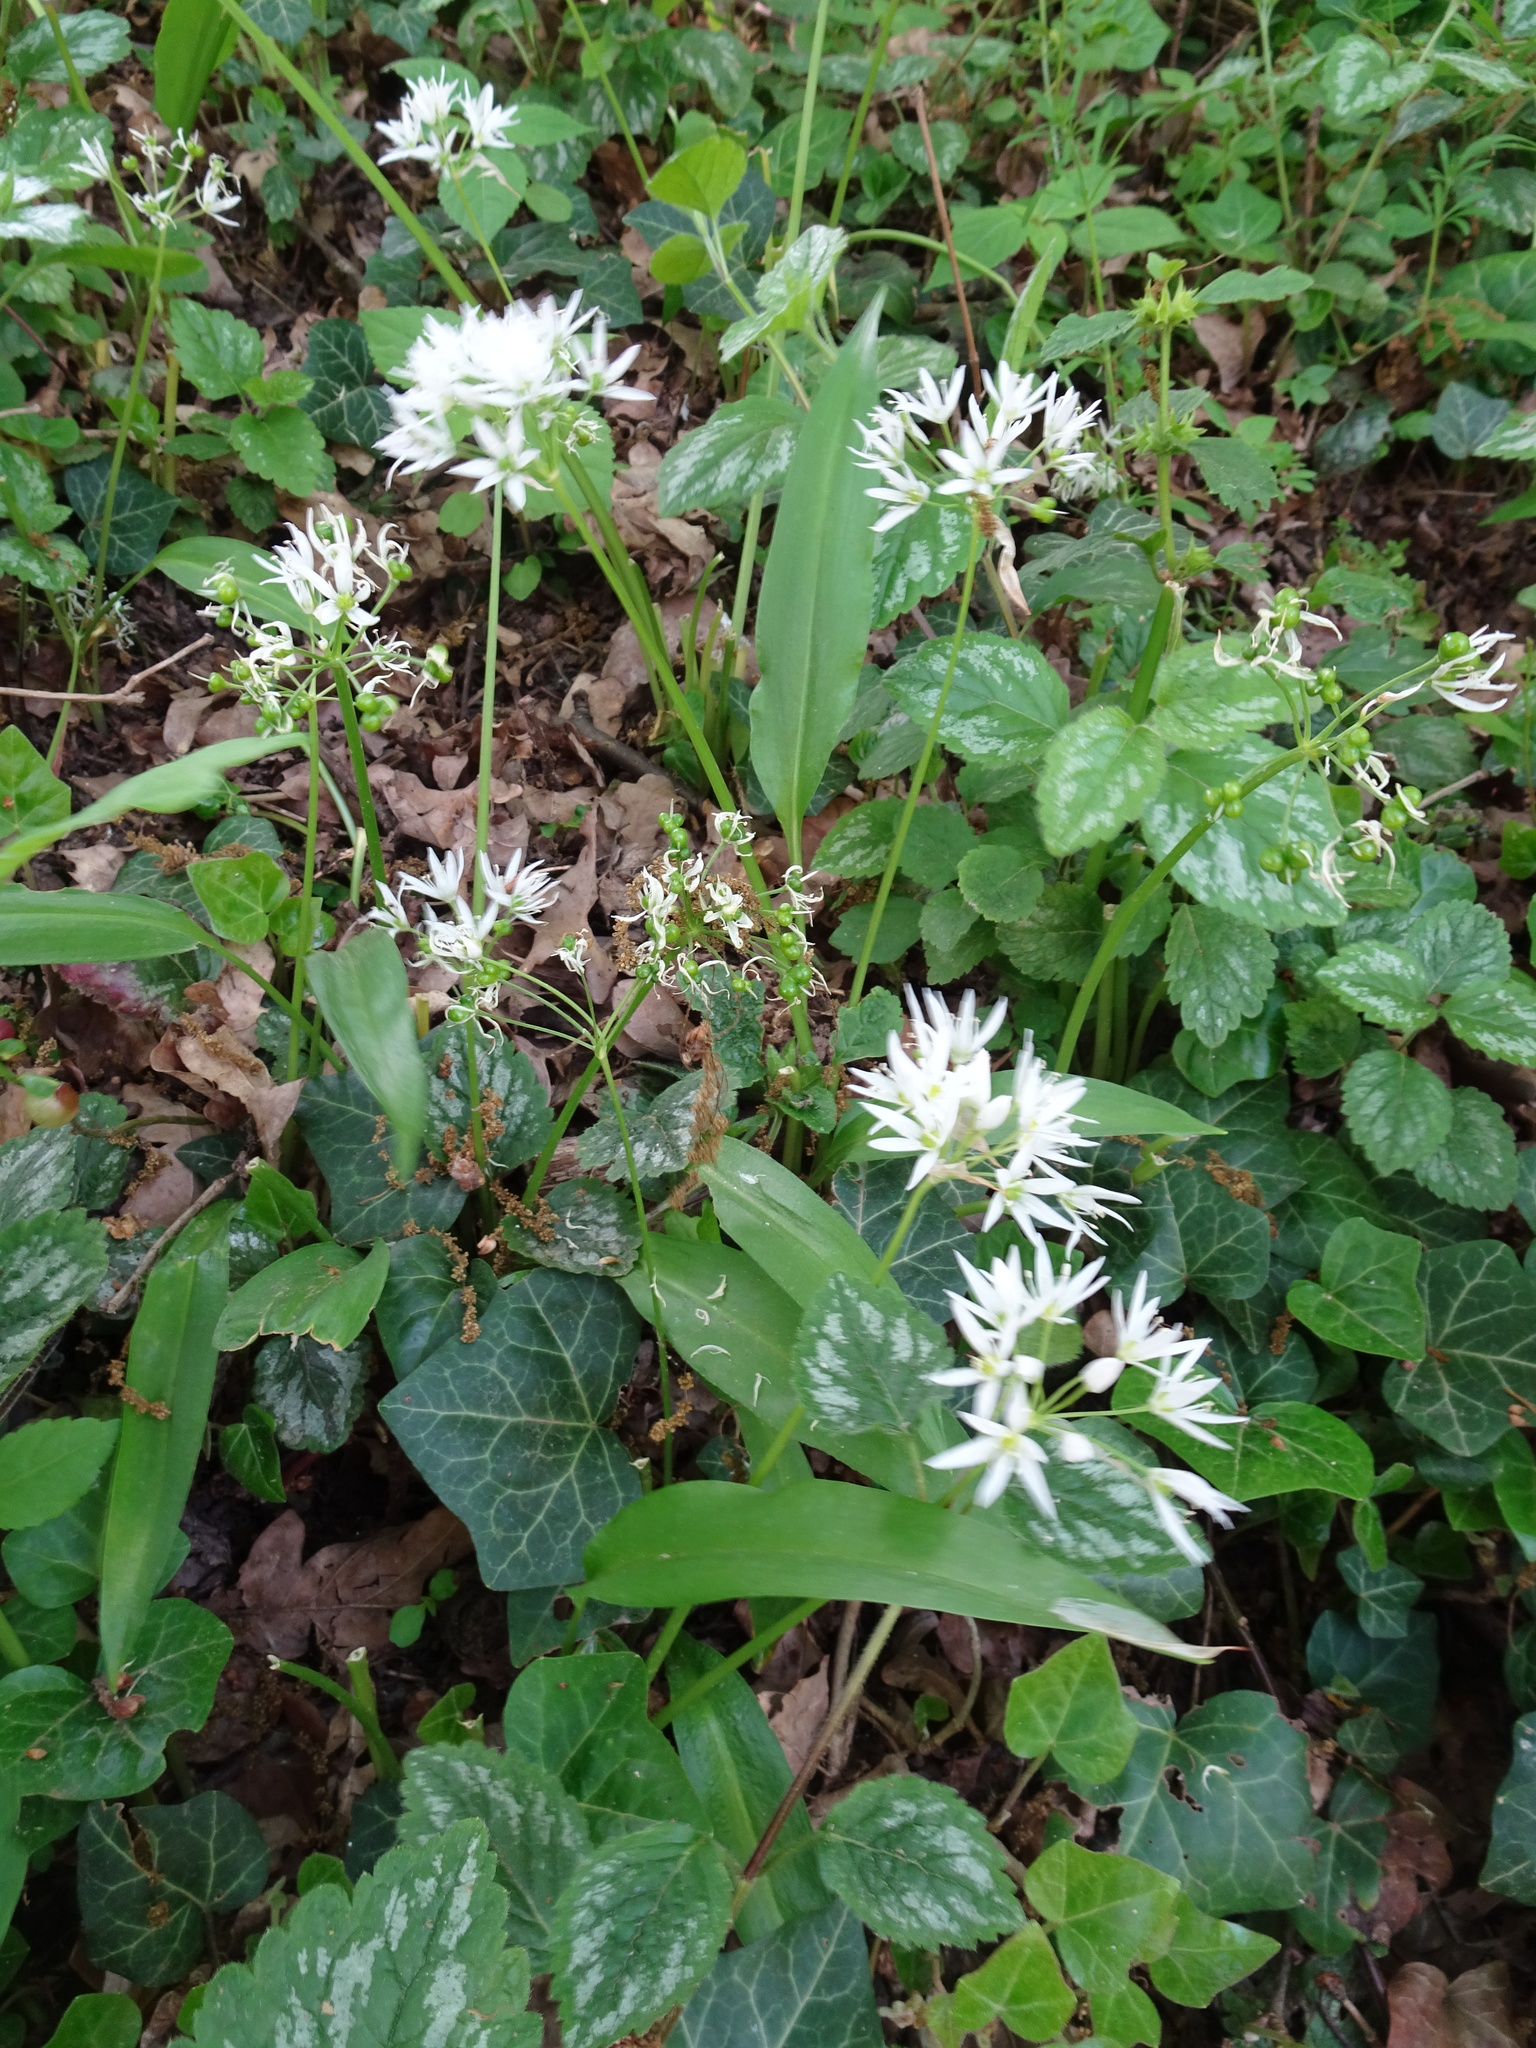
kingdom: Plantae
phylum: Tracheophyta
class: Liliopsida
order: Asparagales
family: Amaryllidaceae
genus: Allium
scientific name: Allium ursinum
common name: Ramsons
